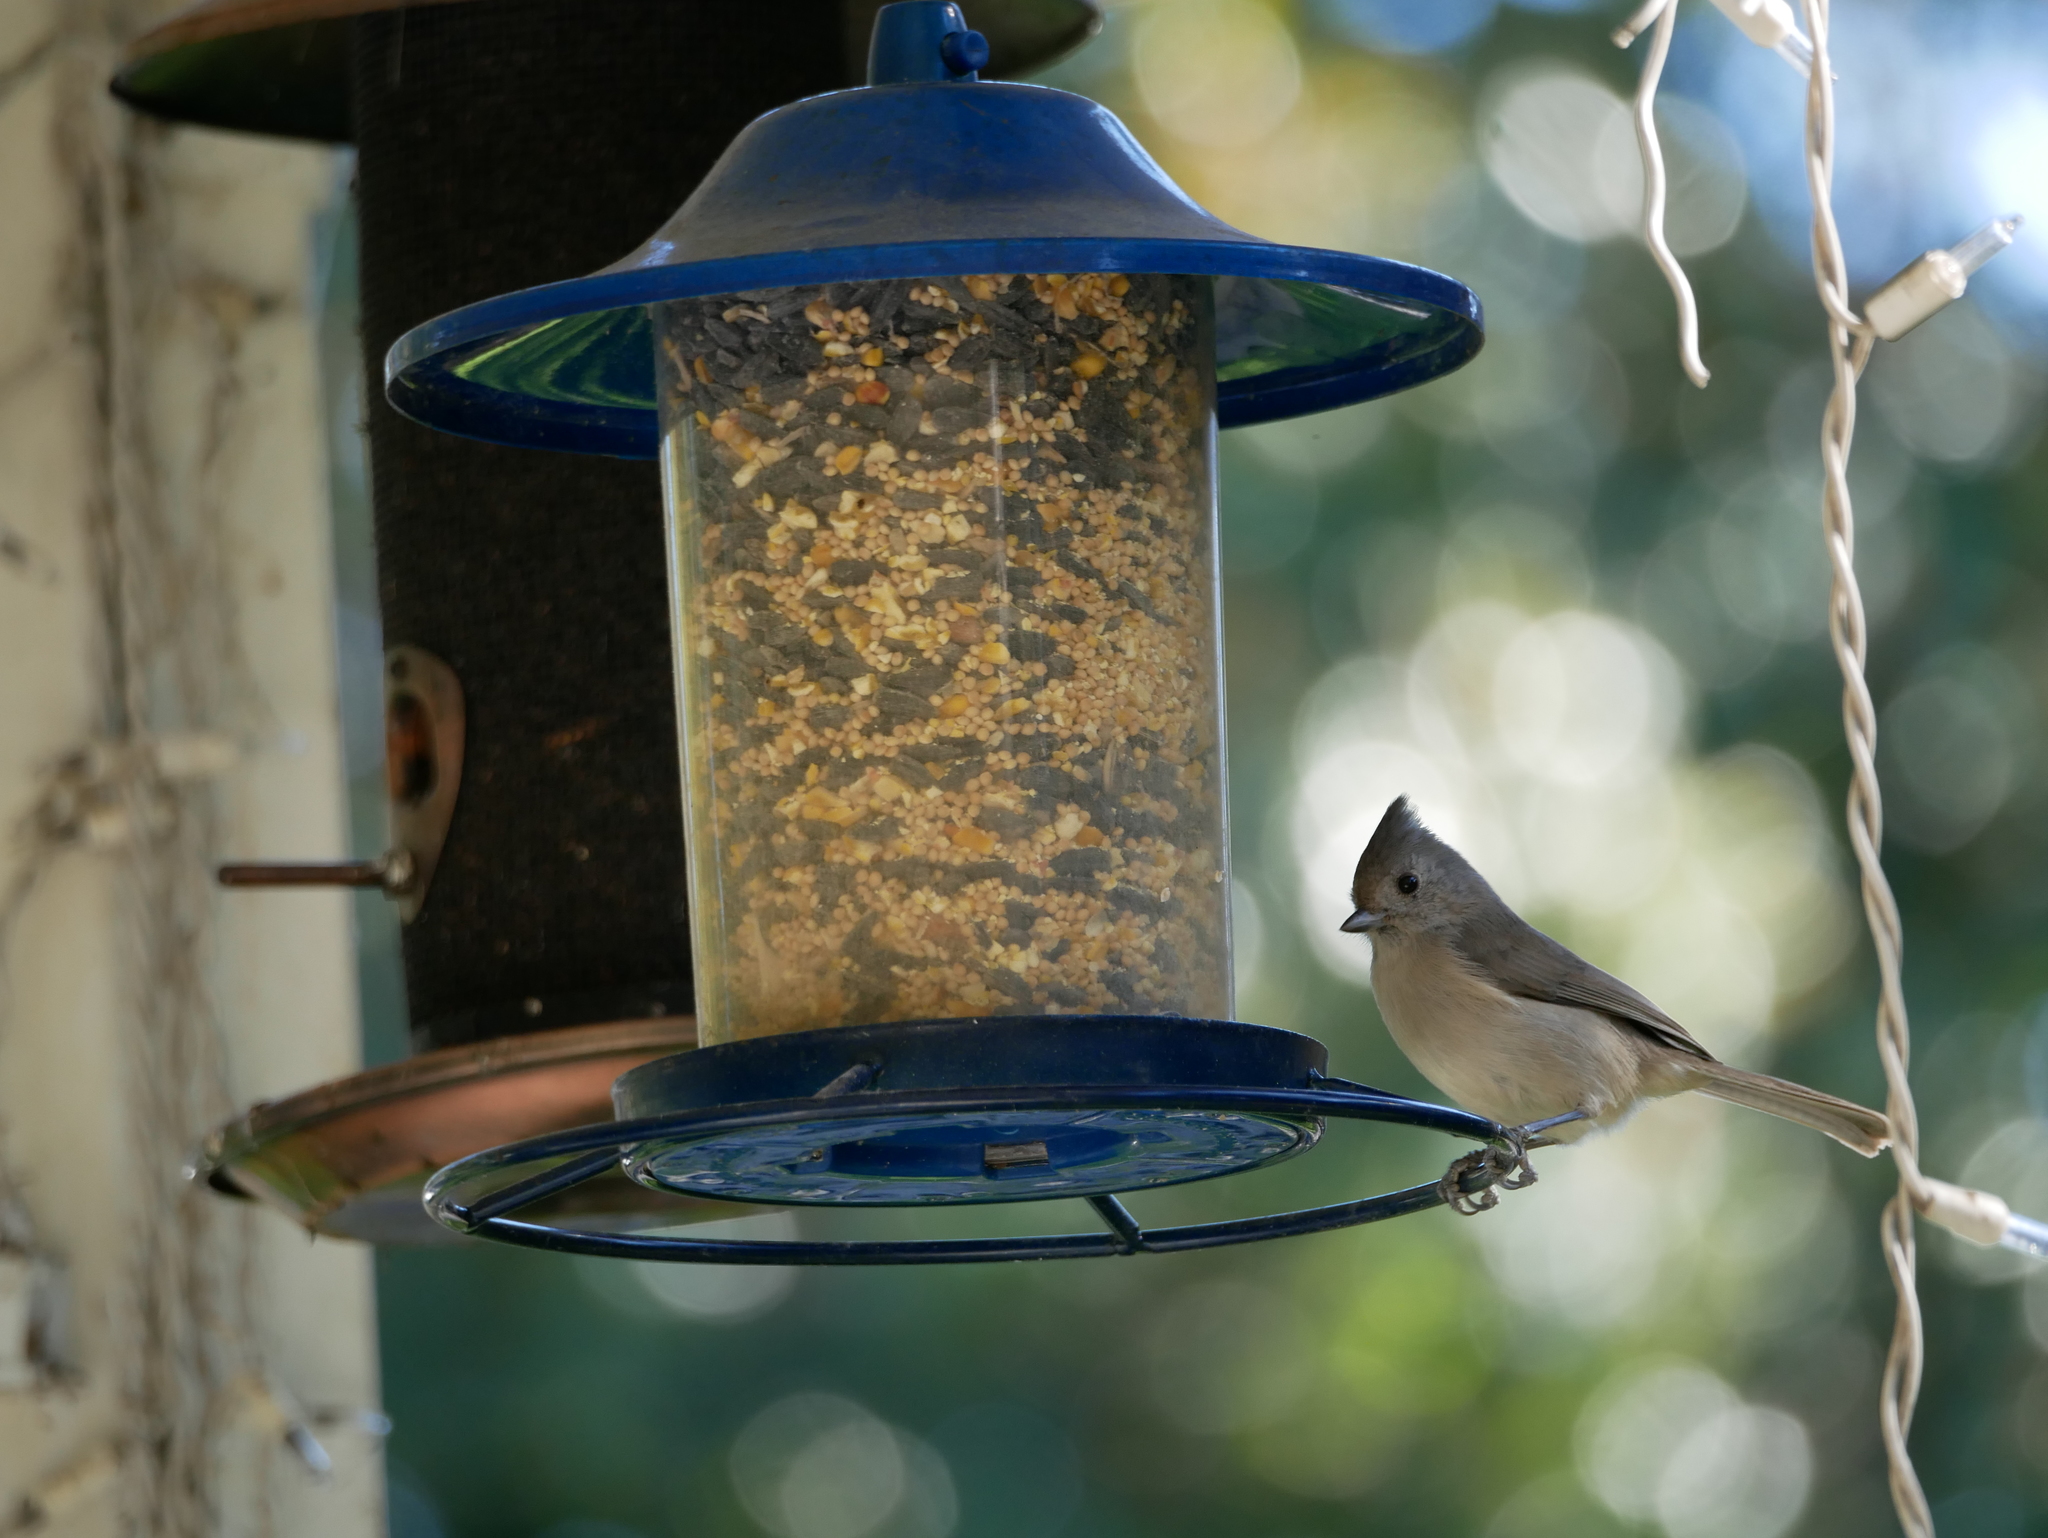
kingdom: Animalia
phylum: Chordata
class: Aves
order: Passeriformes
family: Paridae
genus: Baeolophus
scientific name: Baeolophus inornatus
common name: Oak titmouse
